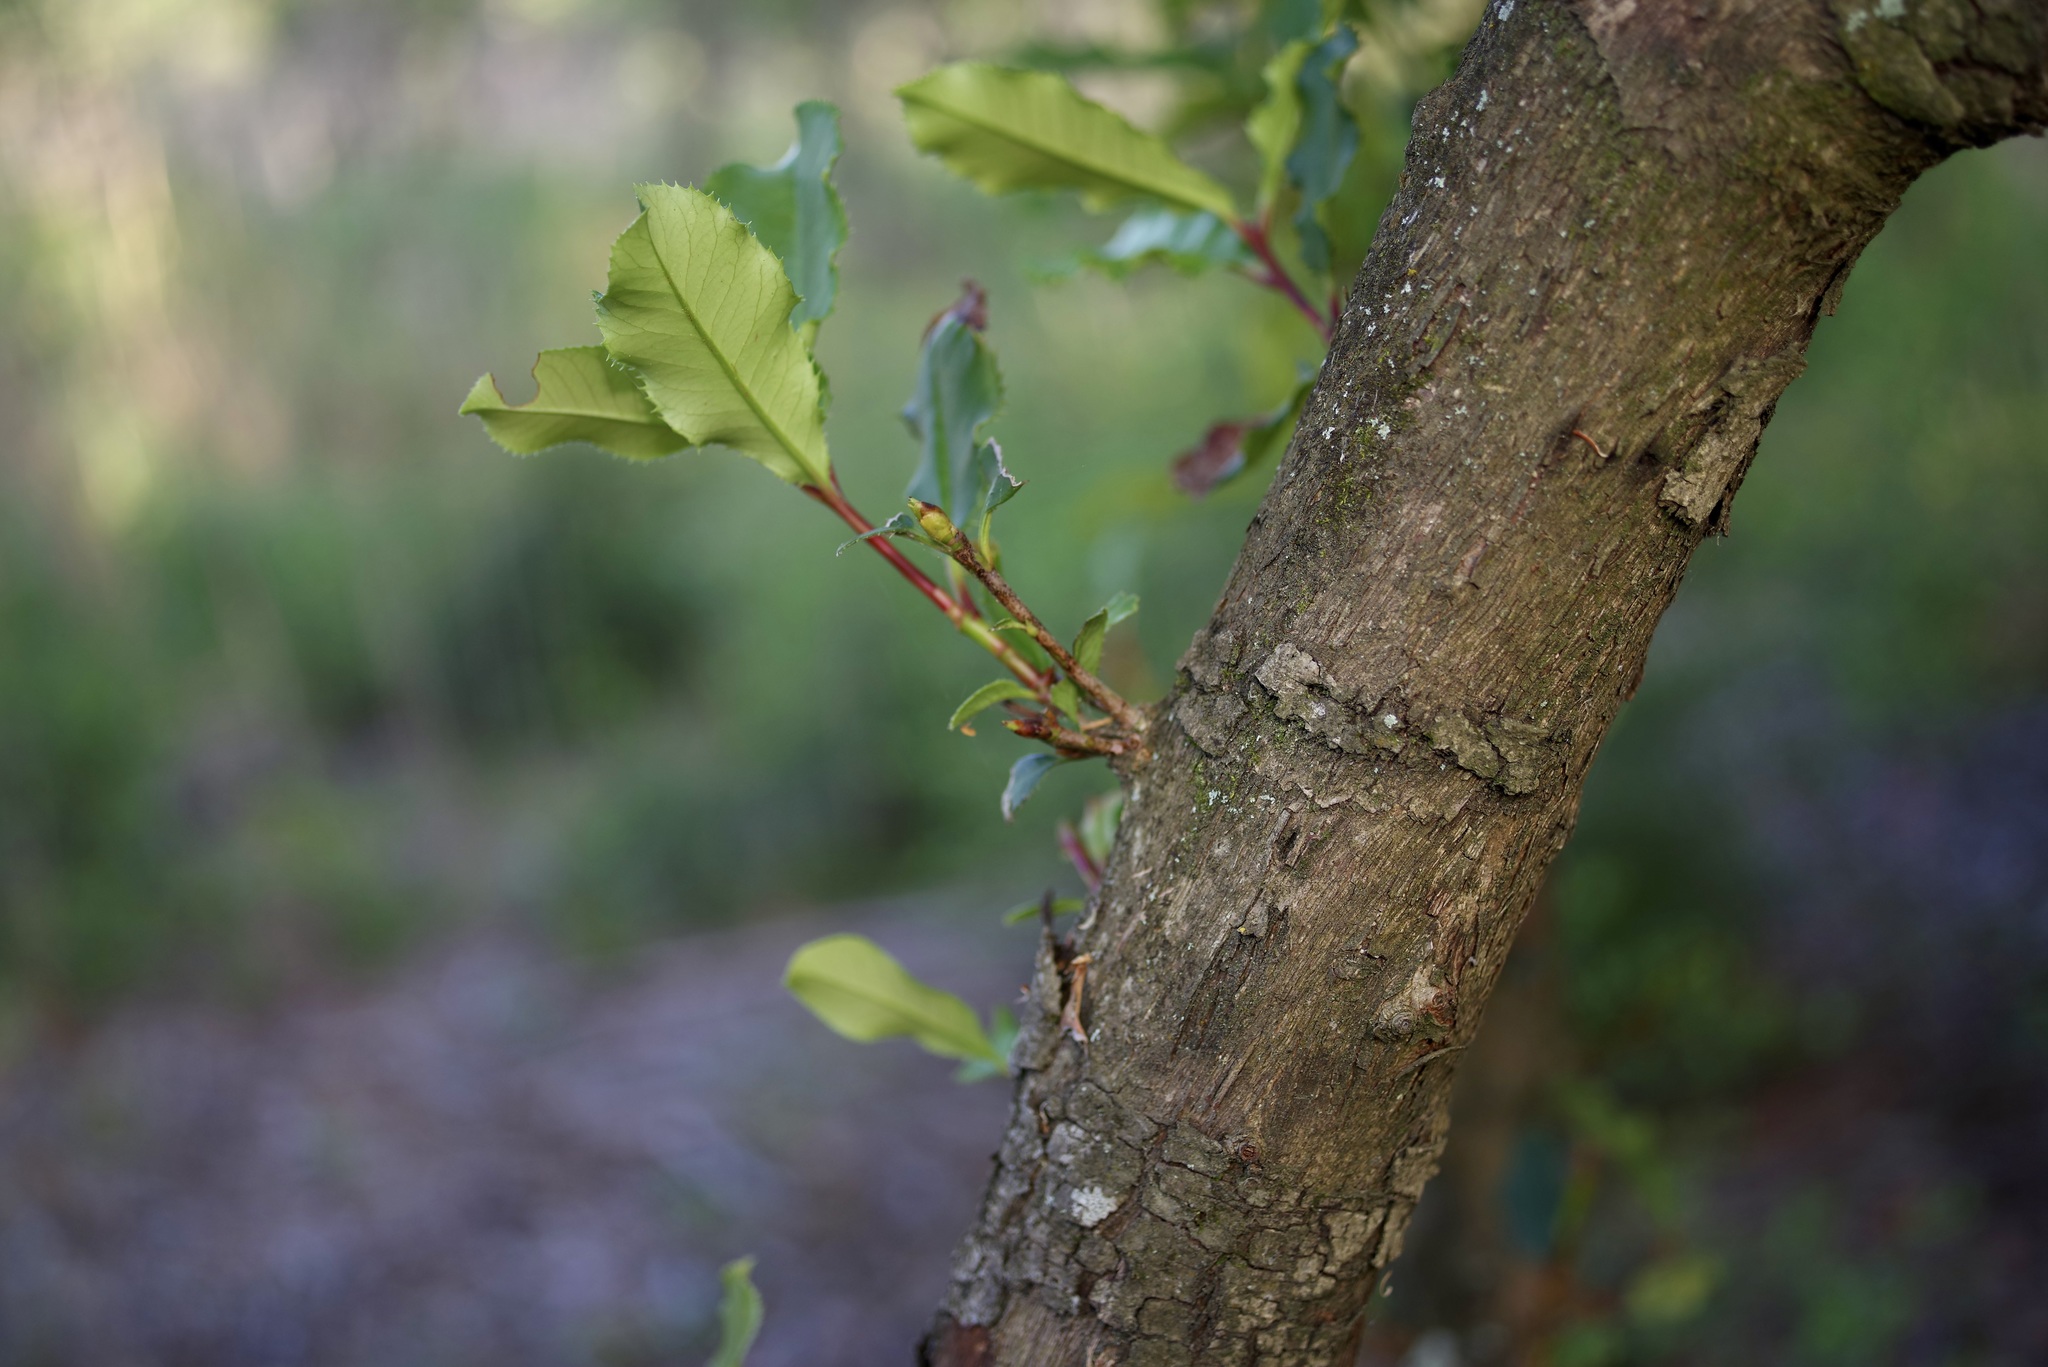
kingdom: Plantae
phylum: Tracheophyta
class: Magnoliopsida
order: Rosales
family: Rosaceae
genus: Photinia
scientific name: Photinia serratifolia
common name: Taiwanese photinia
